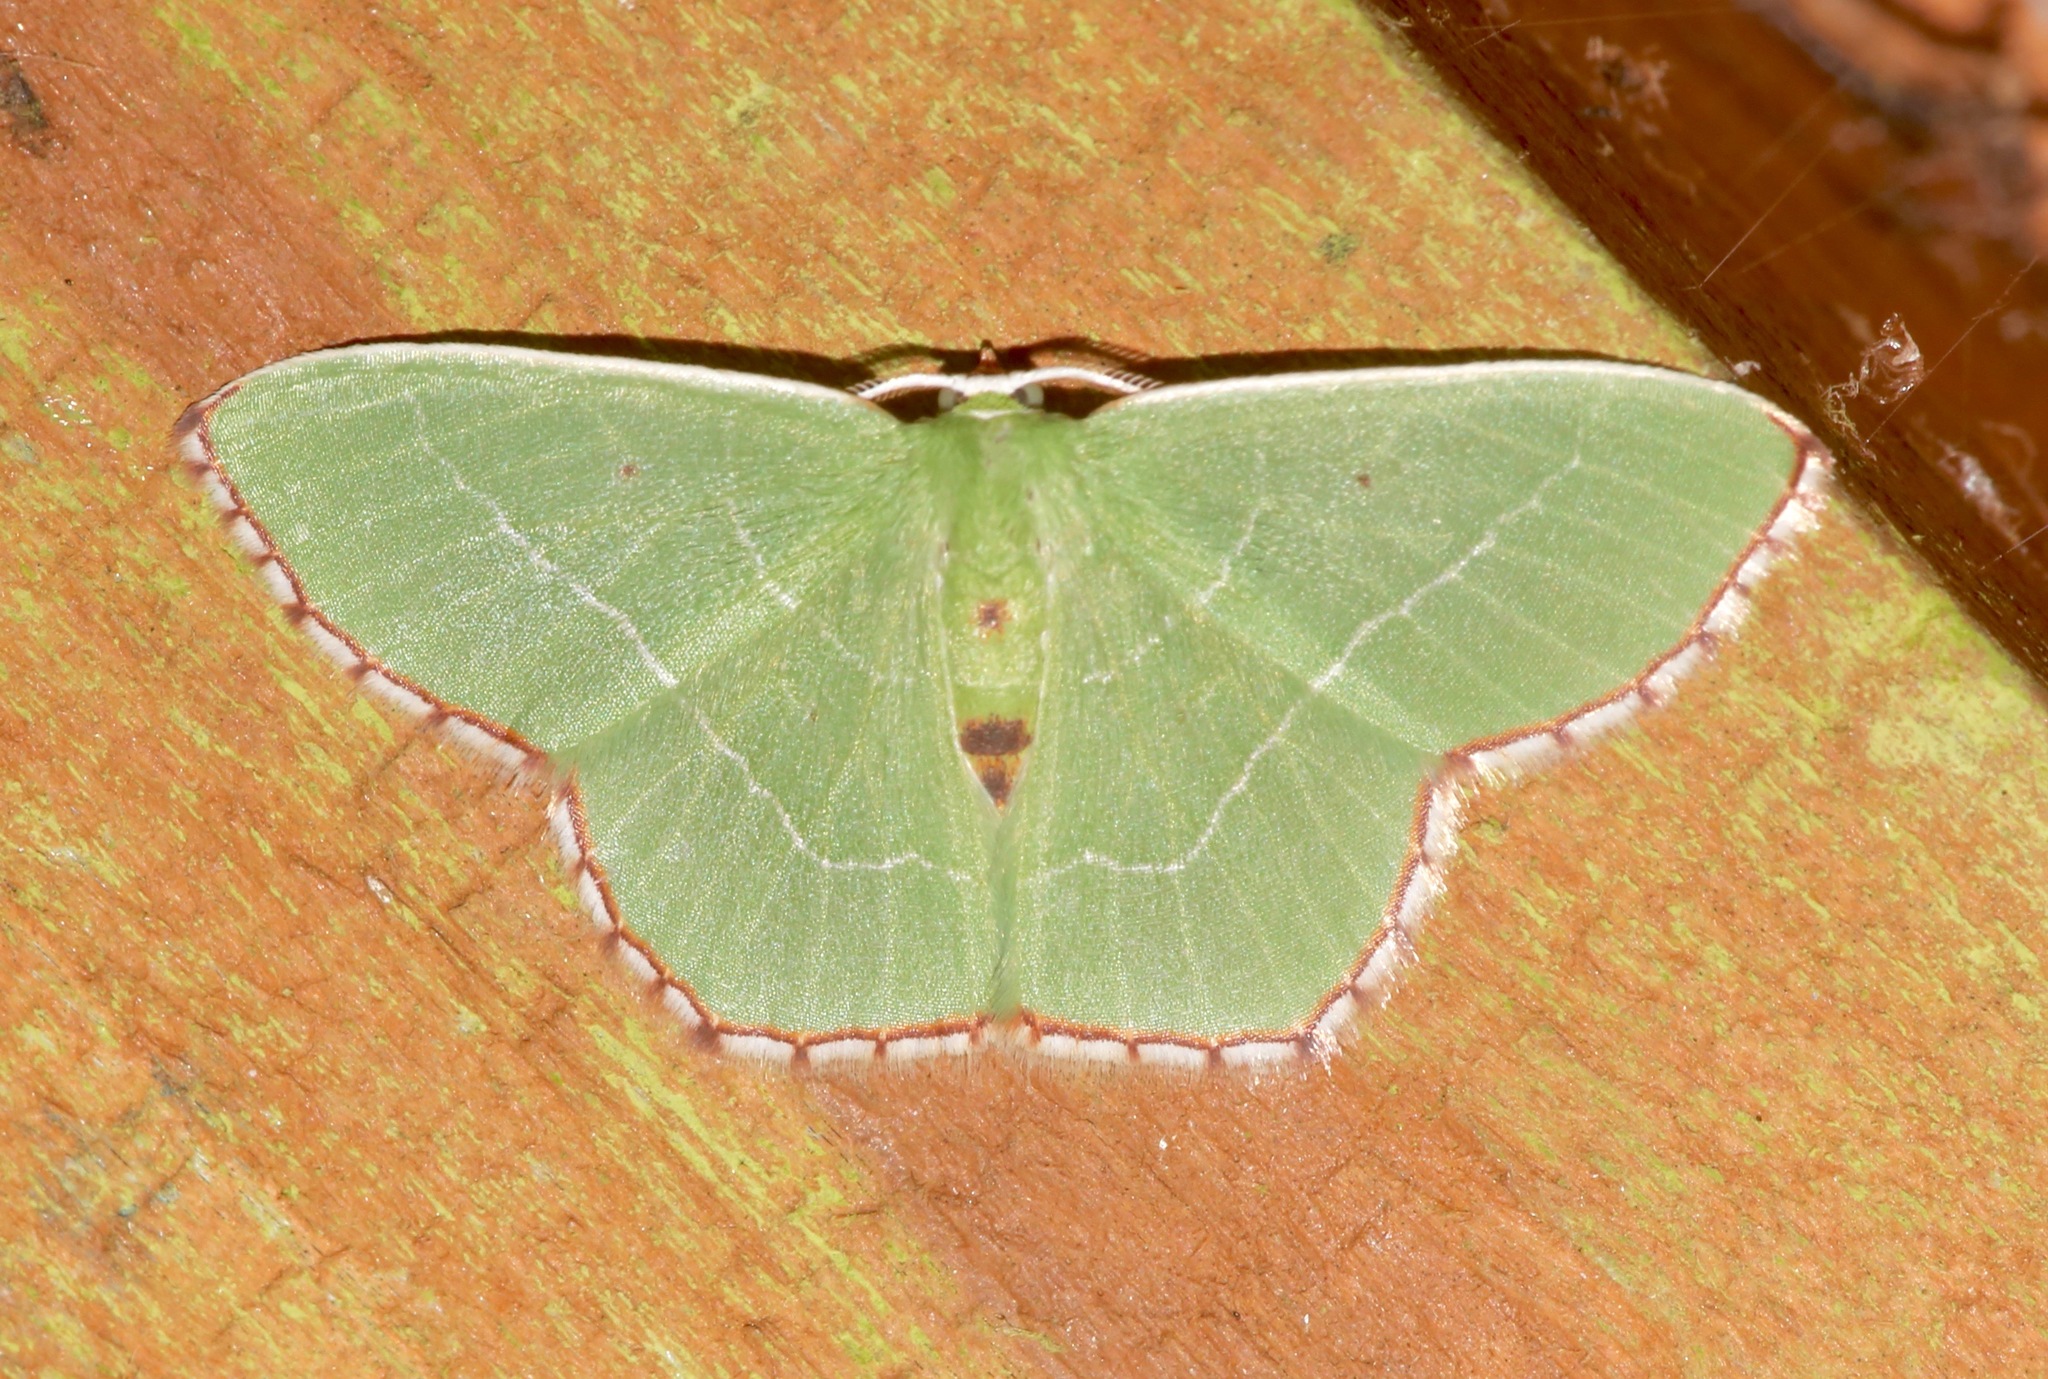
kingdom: Animalia
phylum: Arthropoda
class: Insecta
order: Lepidoptera
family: Geometridae
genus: Nemoria
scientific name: Nemoria saturiba
